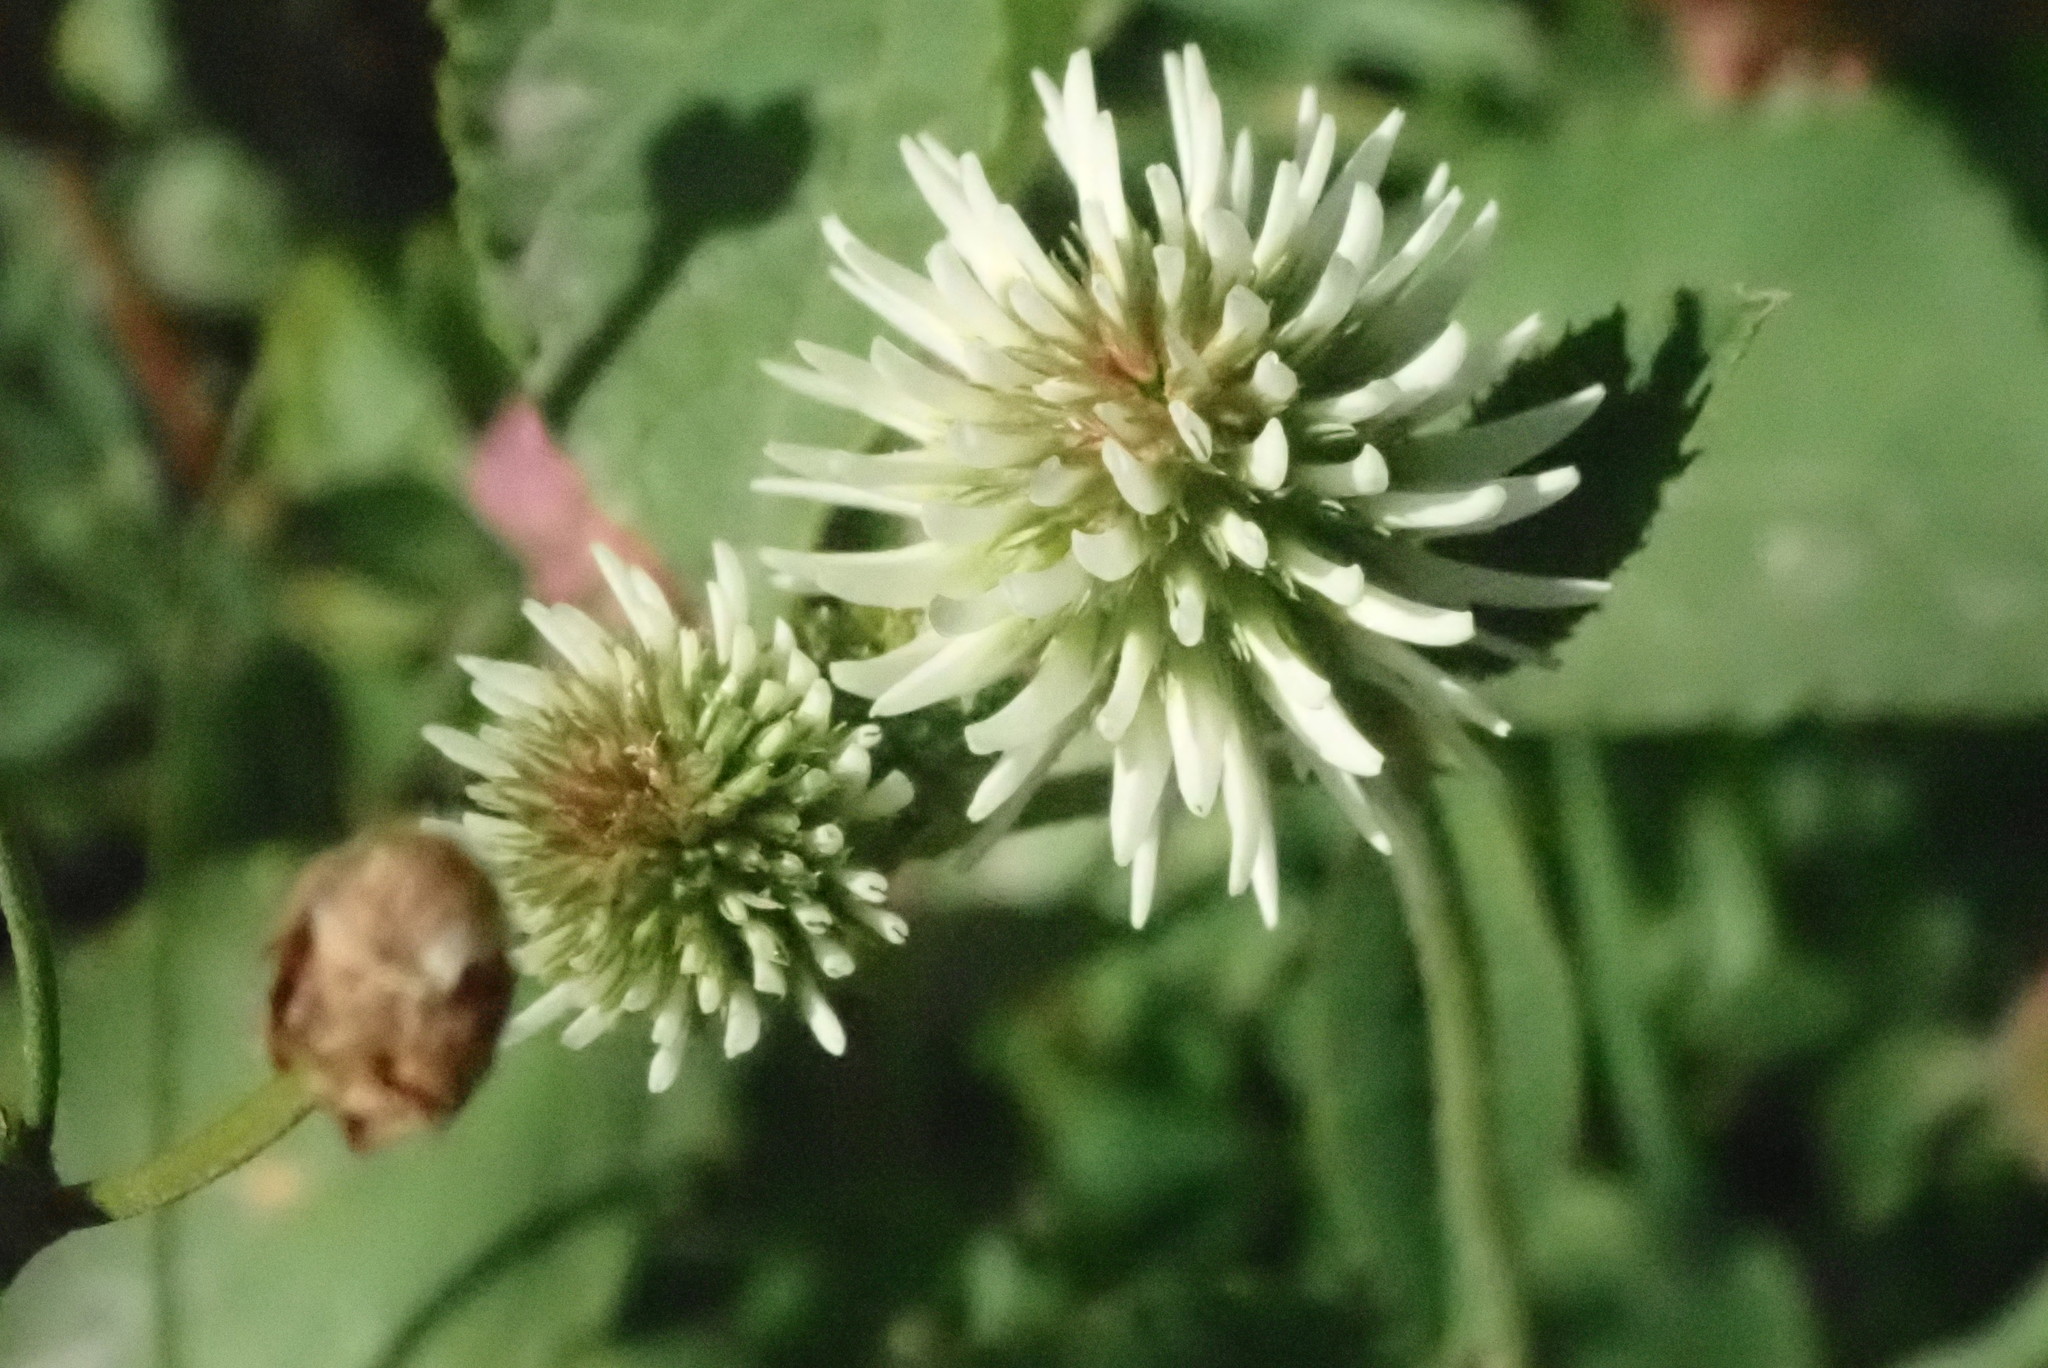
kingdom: Plantae
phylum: Tracheophyta
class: Magnoliopsida
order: Fabales
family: Fabaceae
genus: Trifolium
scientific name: Trifolium montanum
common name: Mountain clover
